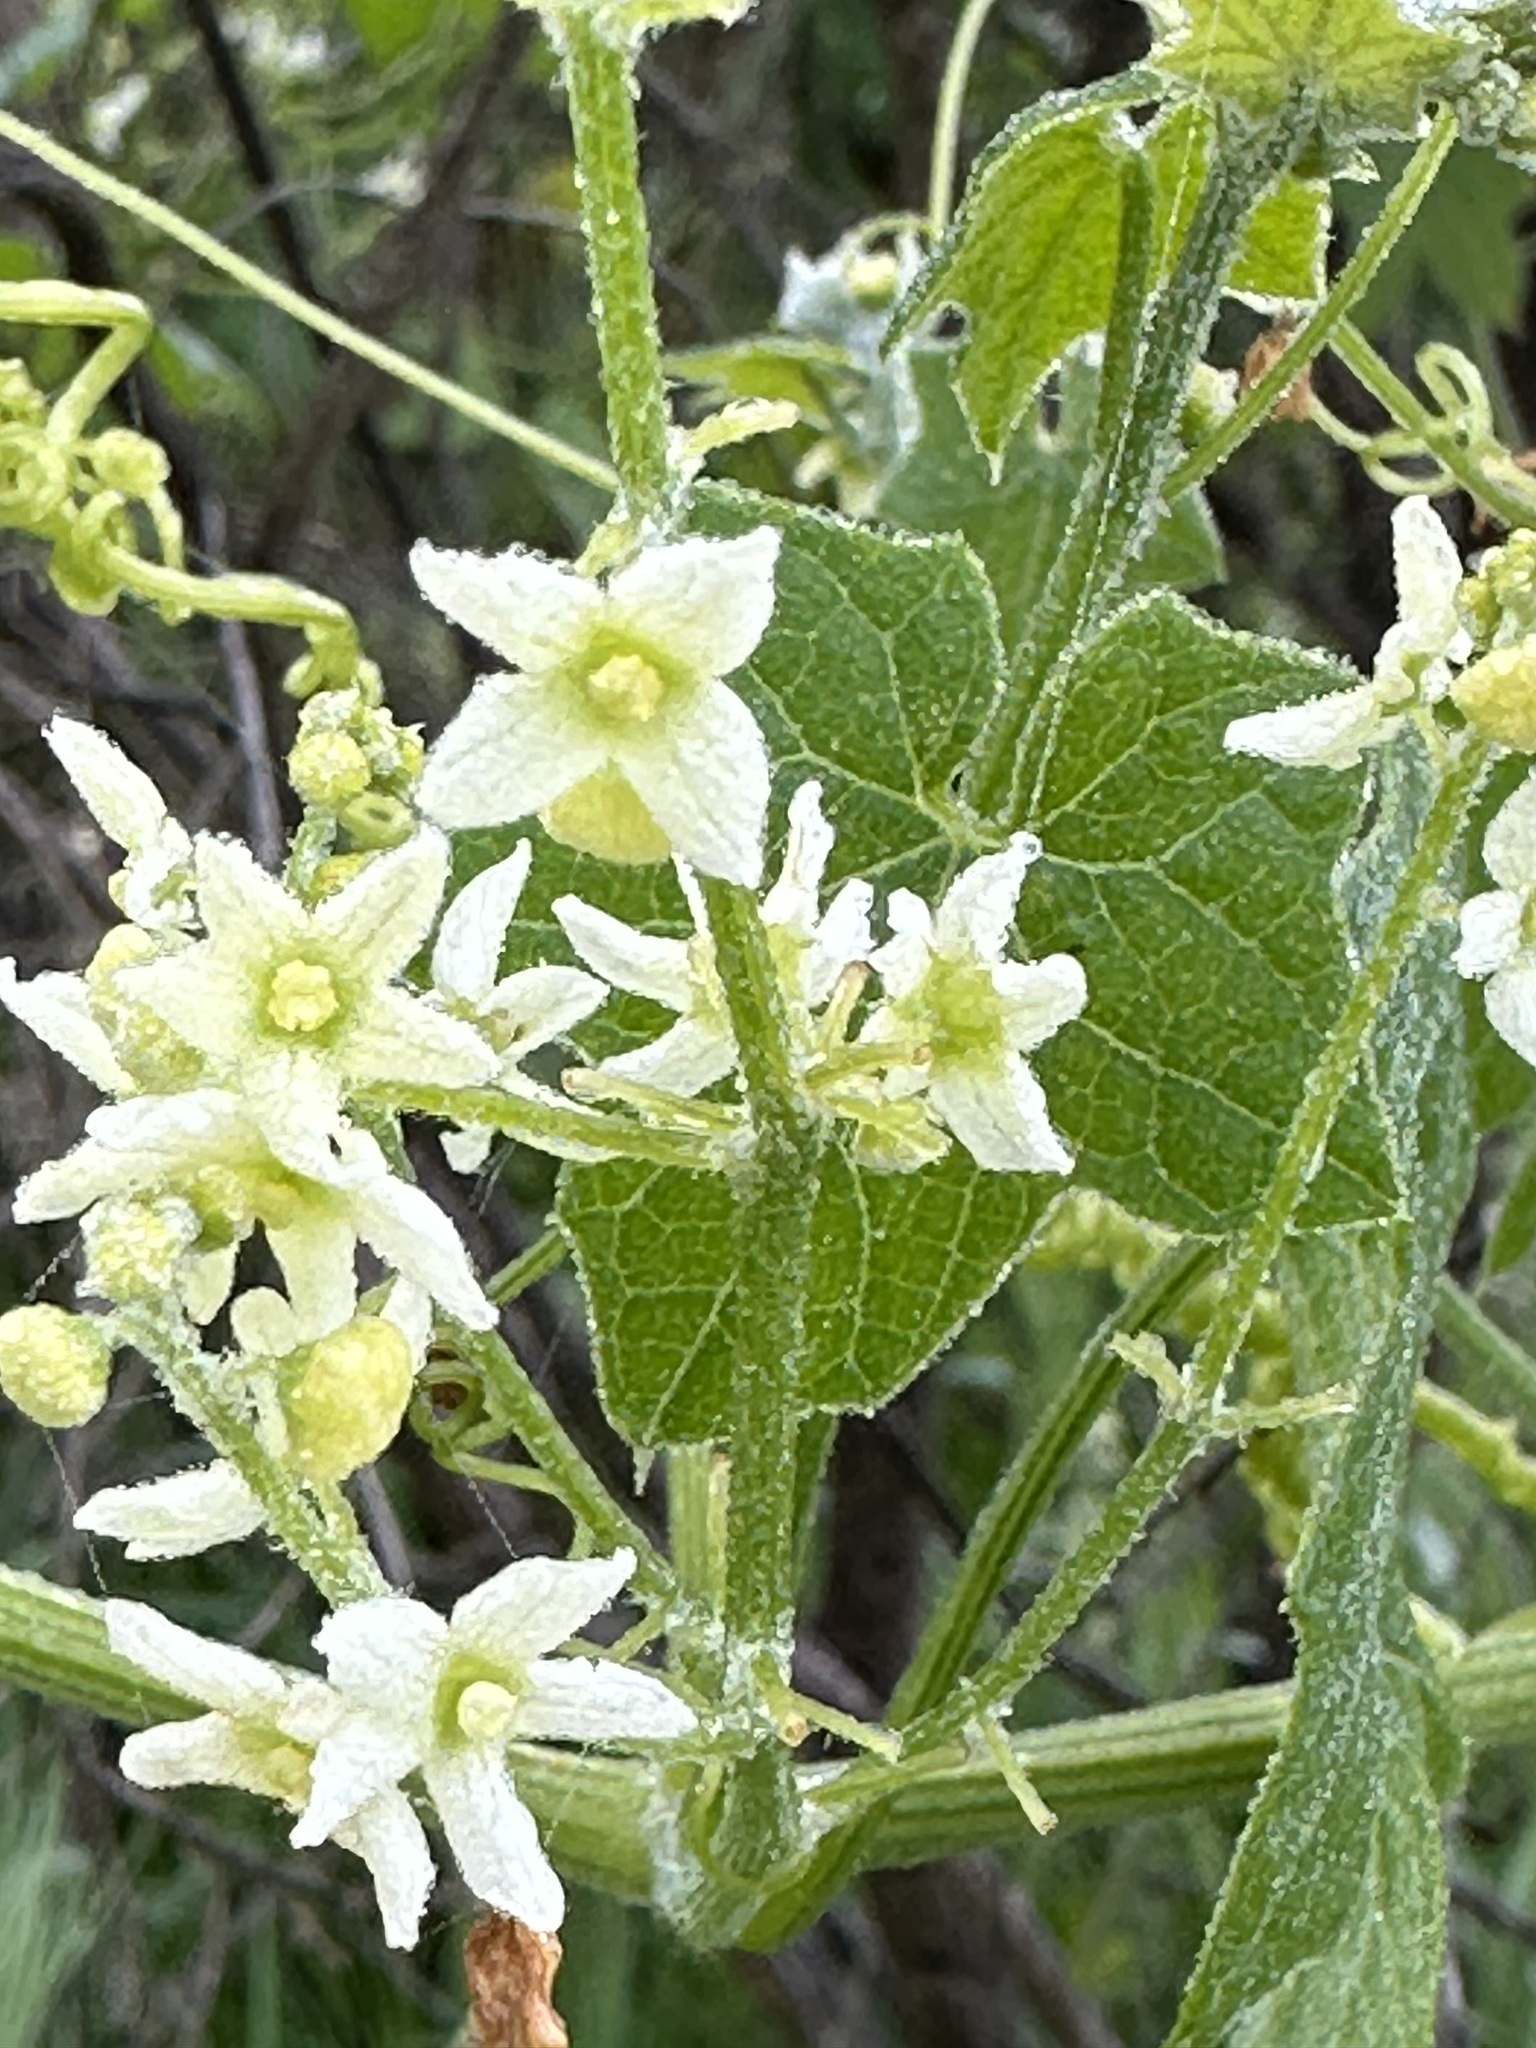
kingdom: Plantae
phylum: Tracheophyta
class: Magnoliopsida
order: Cucurbitales
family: Cucurbitaceae
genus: Marah
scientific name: Marah fabacea
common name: California manroot
